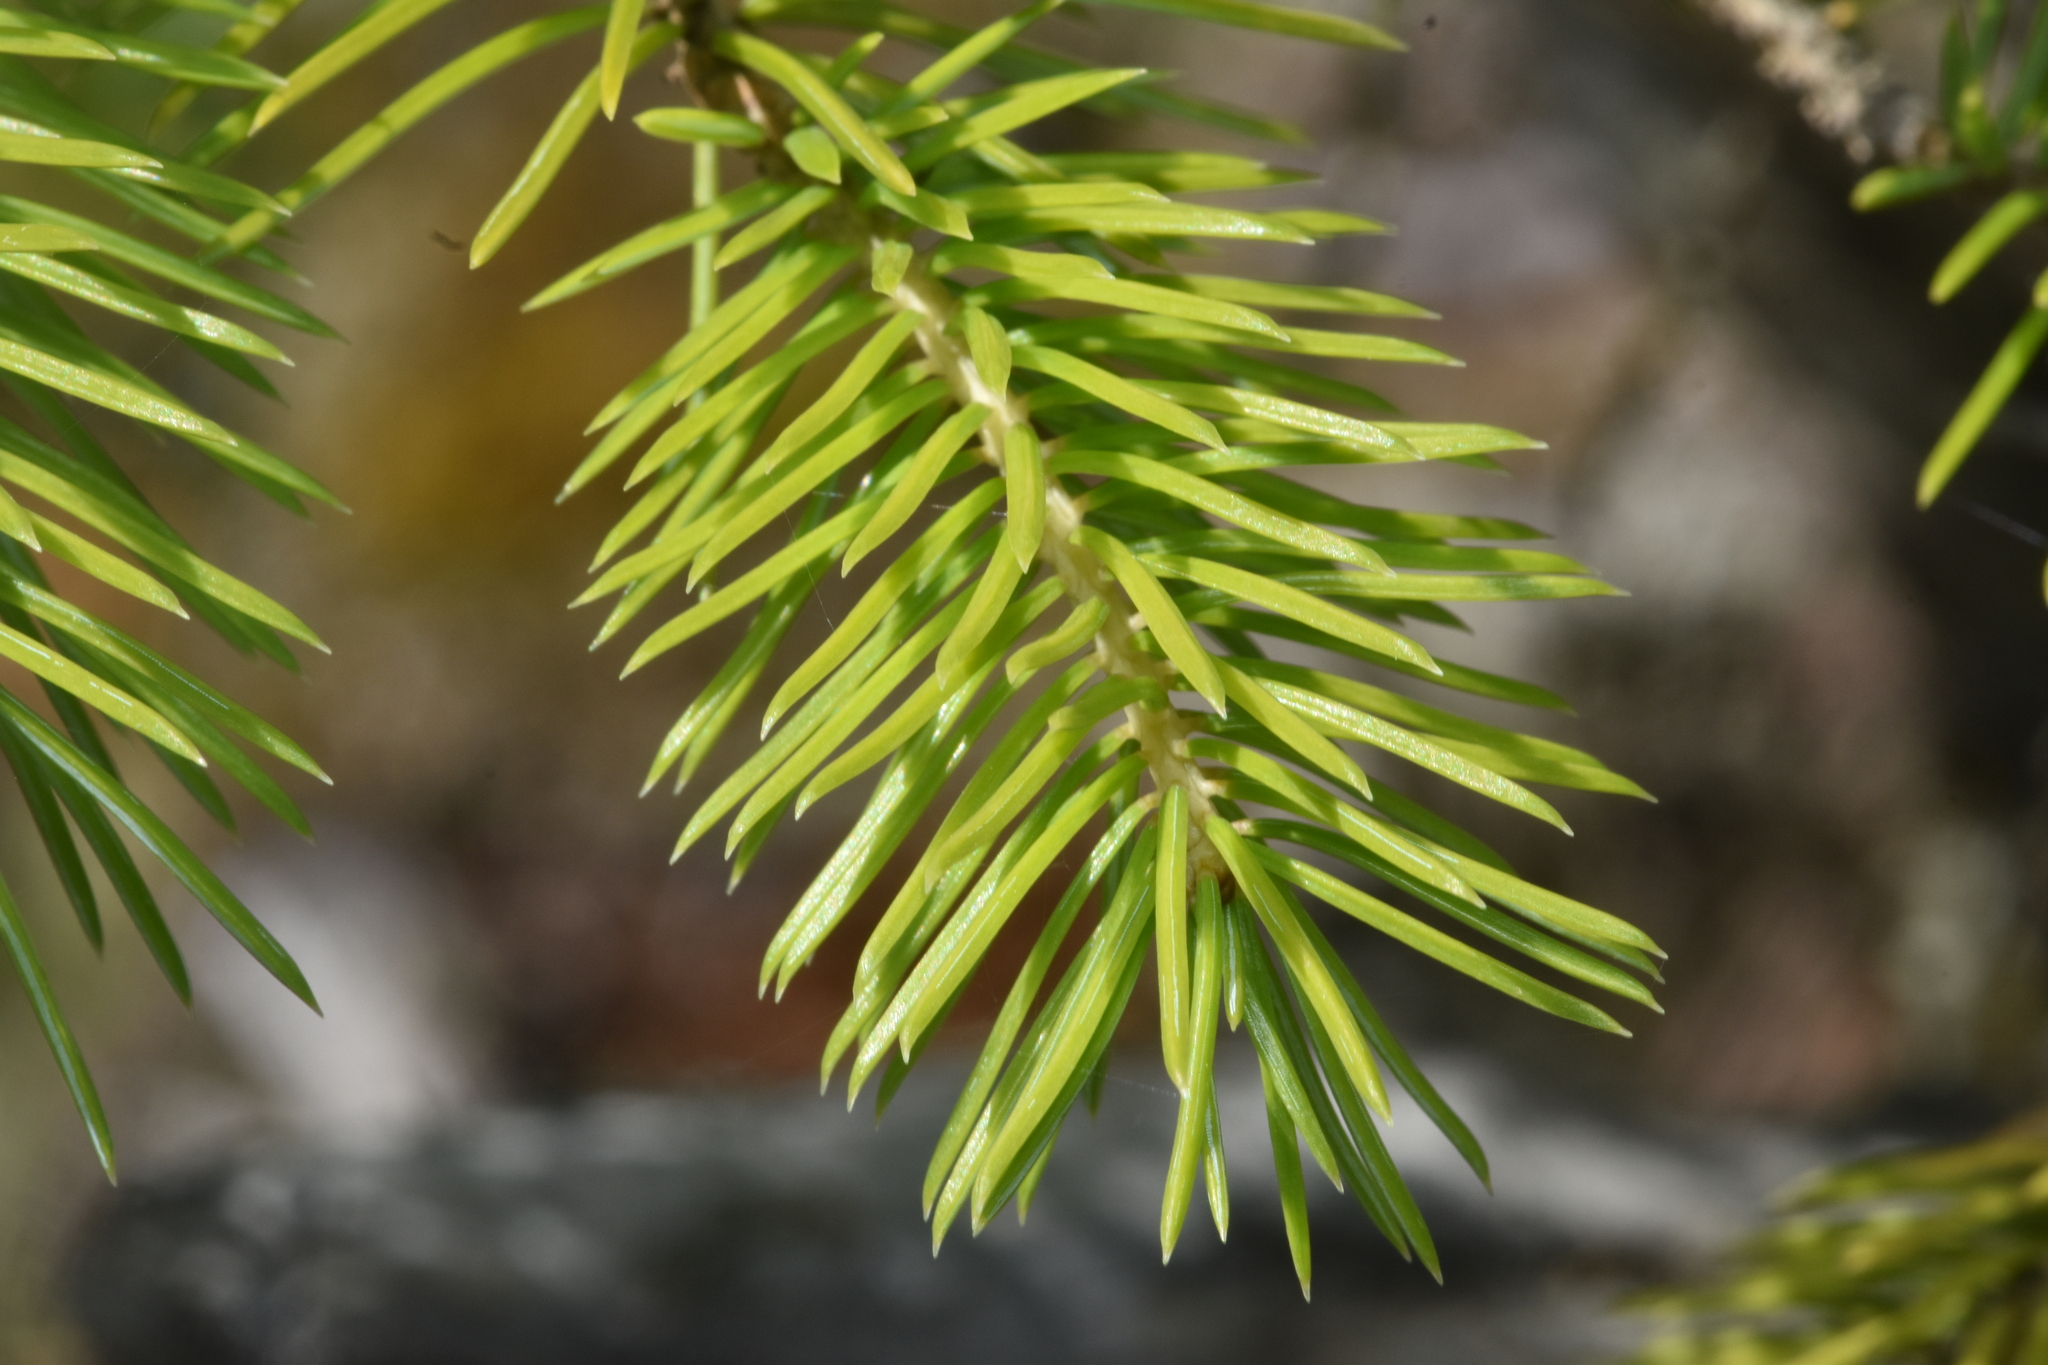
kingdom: Plantae
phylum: Tracheophyta
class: Pinopsida
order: Pinales
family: Pinaceae
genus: Picea
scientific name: Picea sitchensis
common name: Sitka spruce
